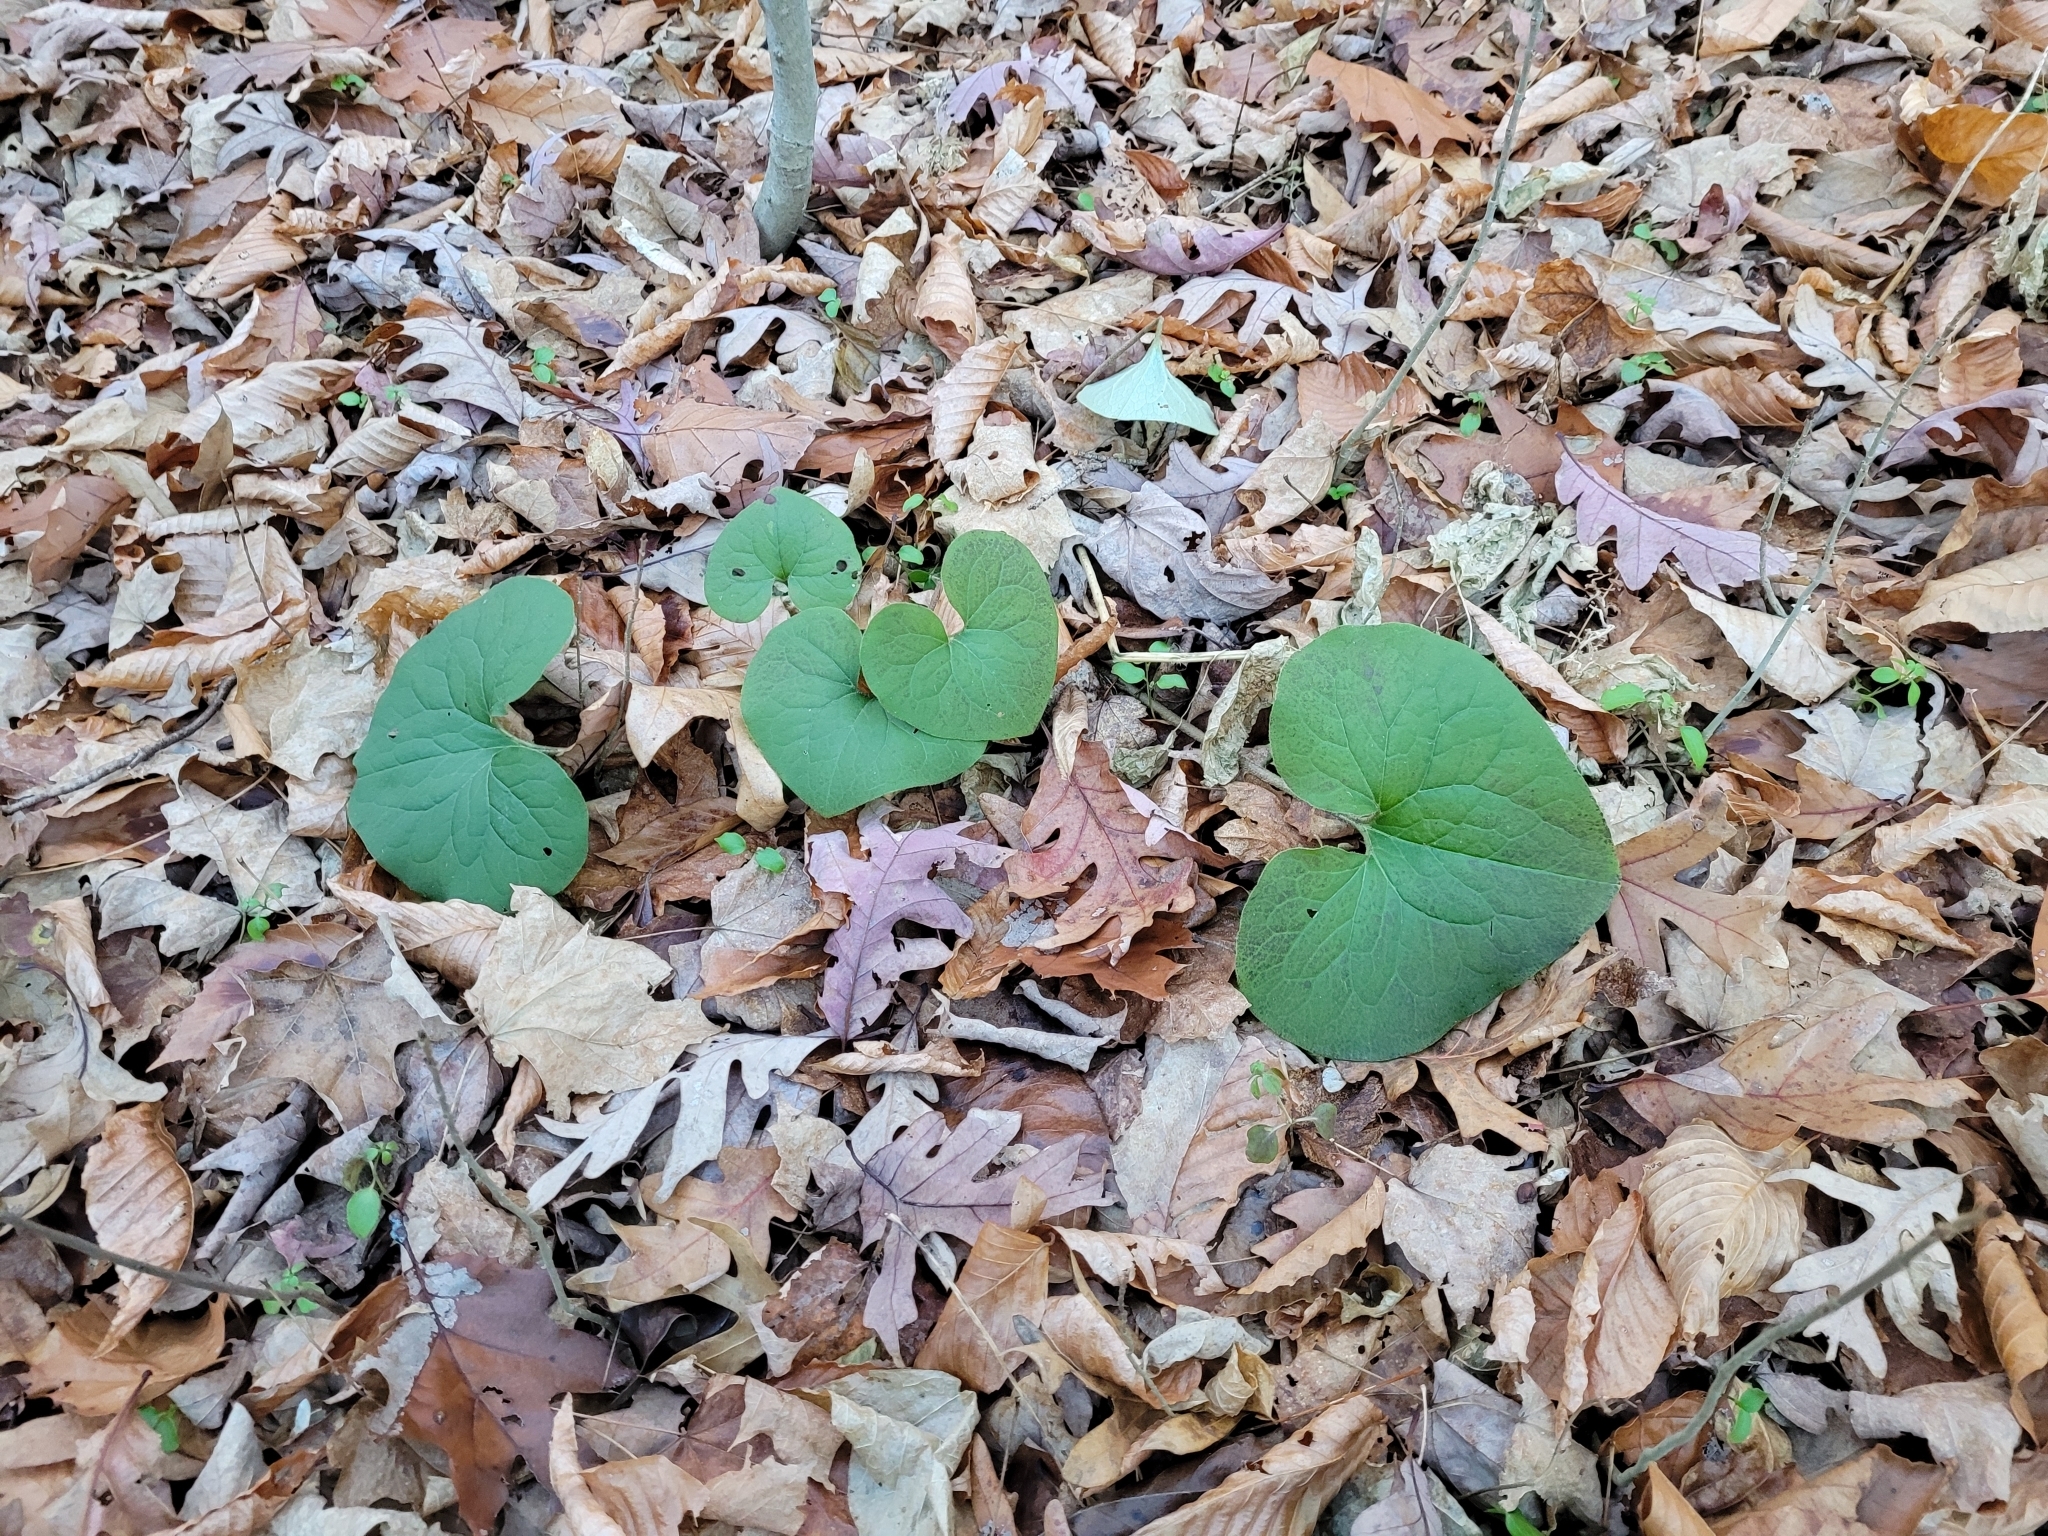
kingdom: Plantae
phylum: Tracheophyta
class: Magnoliopsida
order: Piperales
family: Aristolochiaceae
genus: Asarum
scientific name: Asarum canadense
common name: Wild ginger
